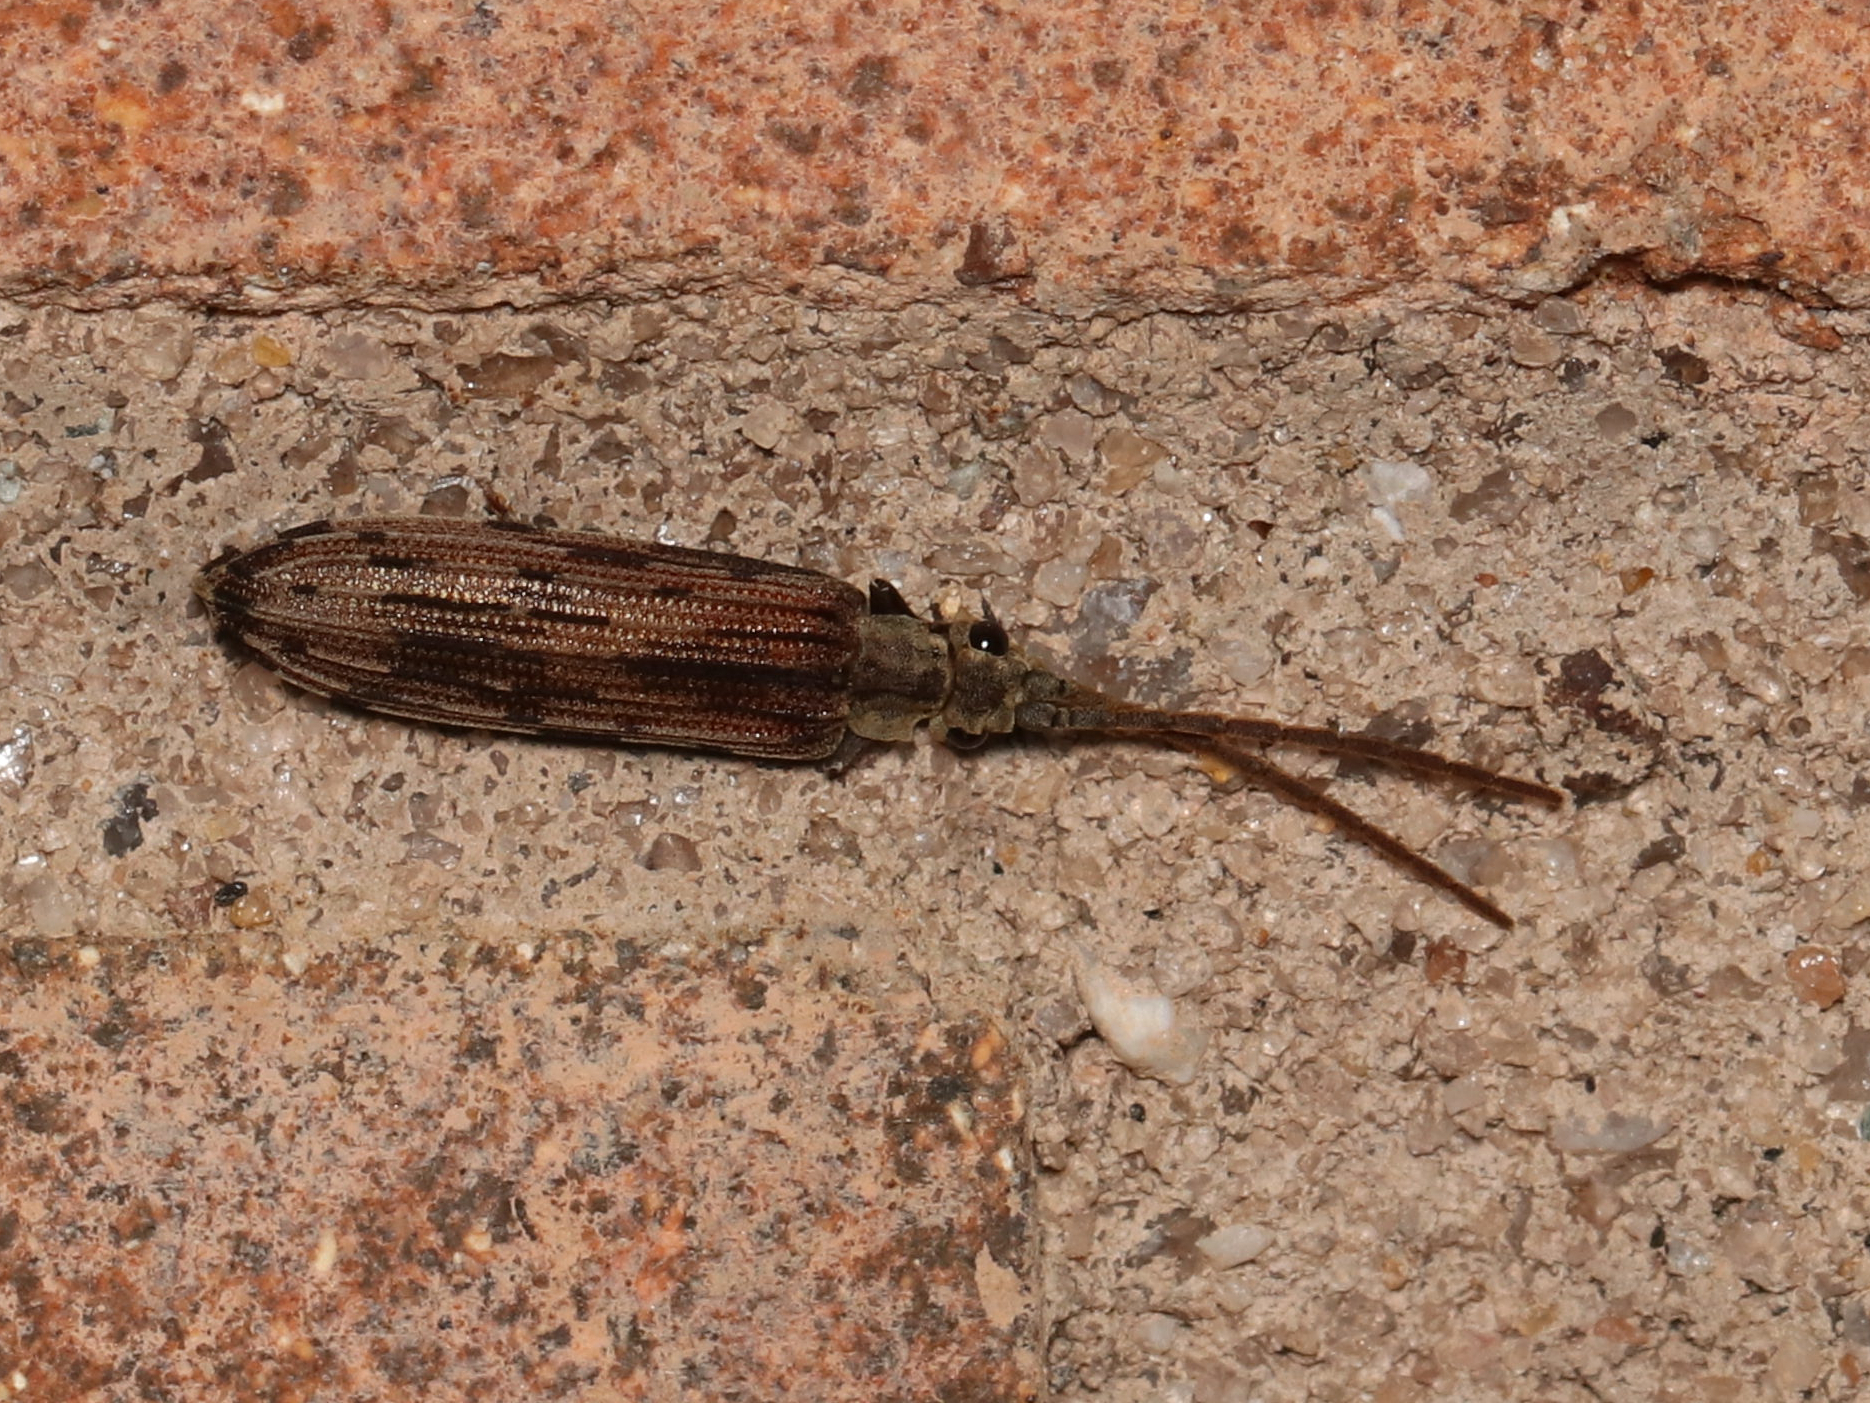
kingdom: Animalia
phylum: Arthropoda
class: Insecta
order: Coleoptera
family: Cupedidae
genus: Tenomerga
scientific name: Tenomerga cinerea
